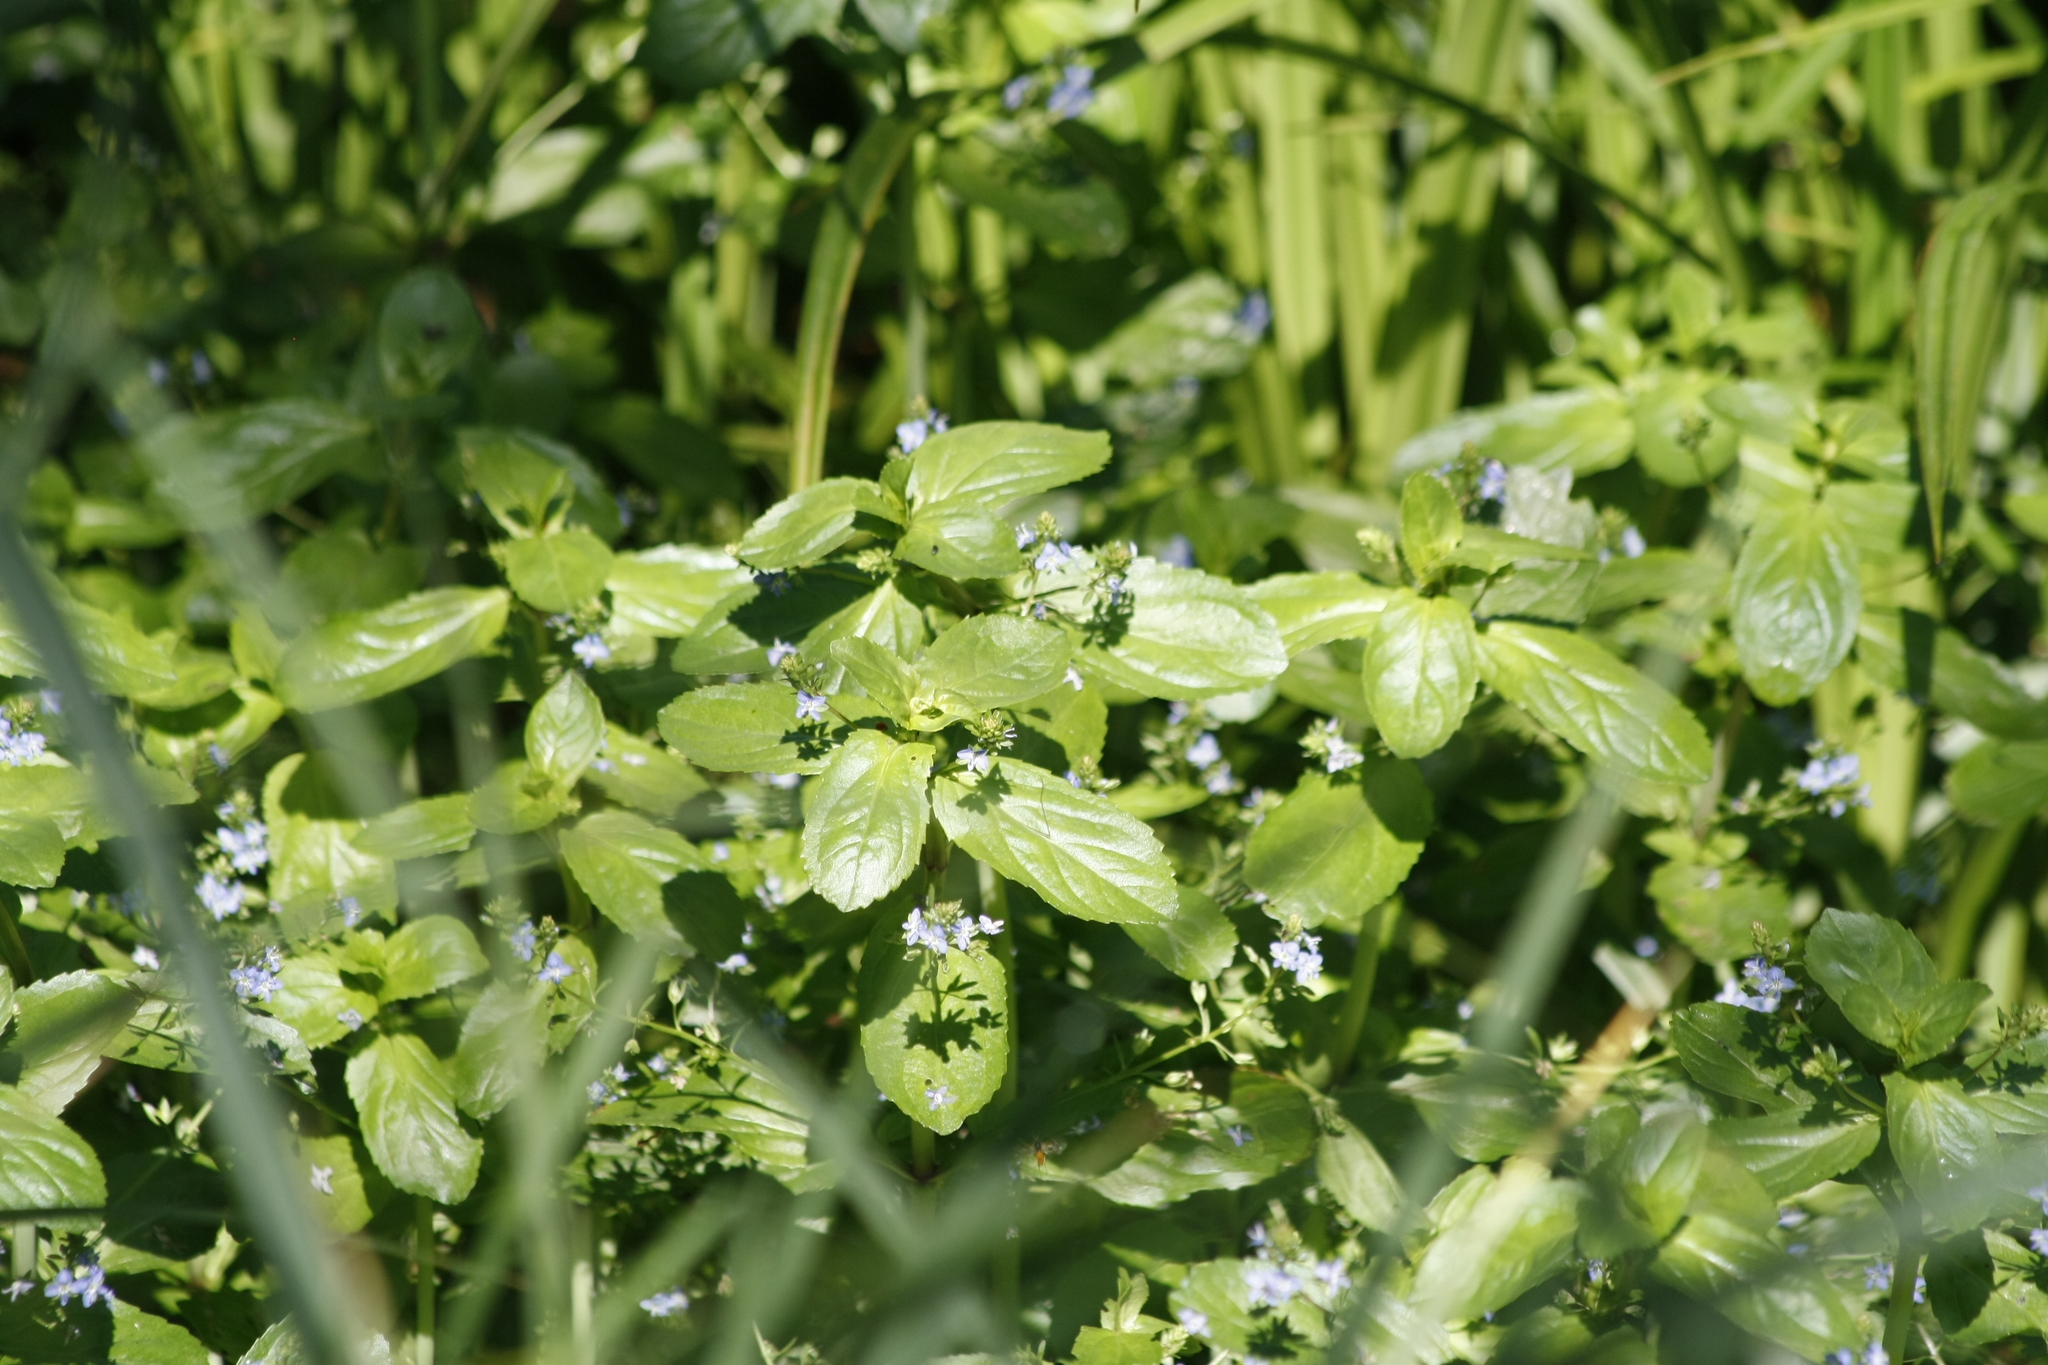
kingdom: Plantae
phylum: Tracheophyta
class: Magnoliopsida
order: Lamiales
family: Plantaginaceae
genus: Veronica
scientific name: Veronica beccabunga
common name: Brooklime
